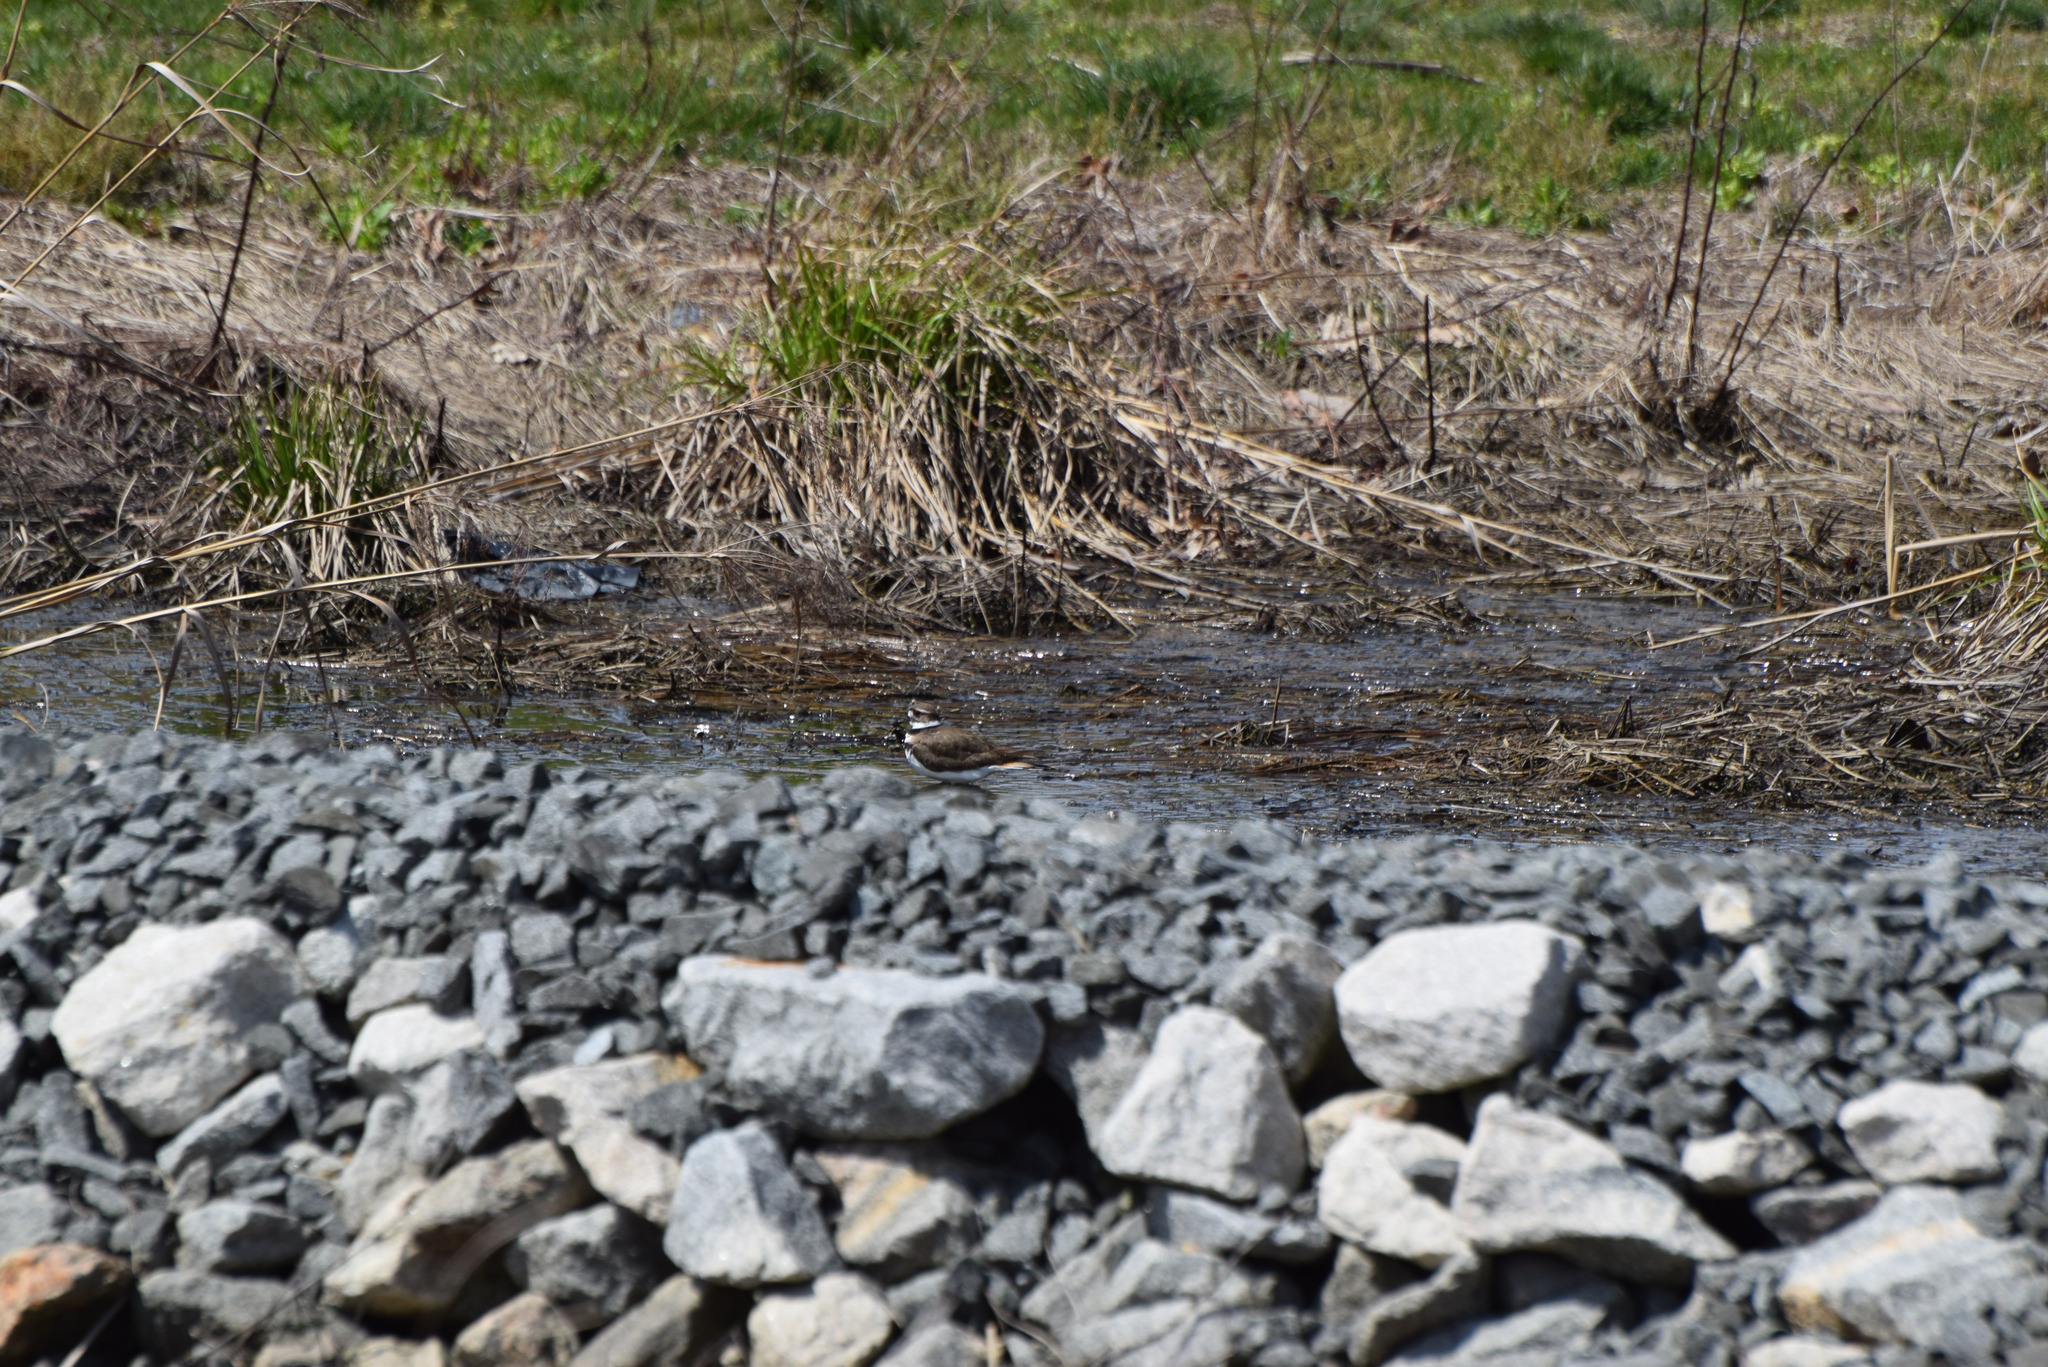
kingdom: Animalia
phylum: Chordata
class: Aves
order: Charadriiformes
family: Charadriidae
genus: Charadrius
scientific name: Charadrius vociferus
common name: Killdeer
